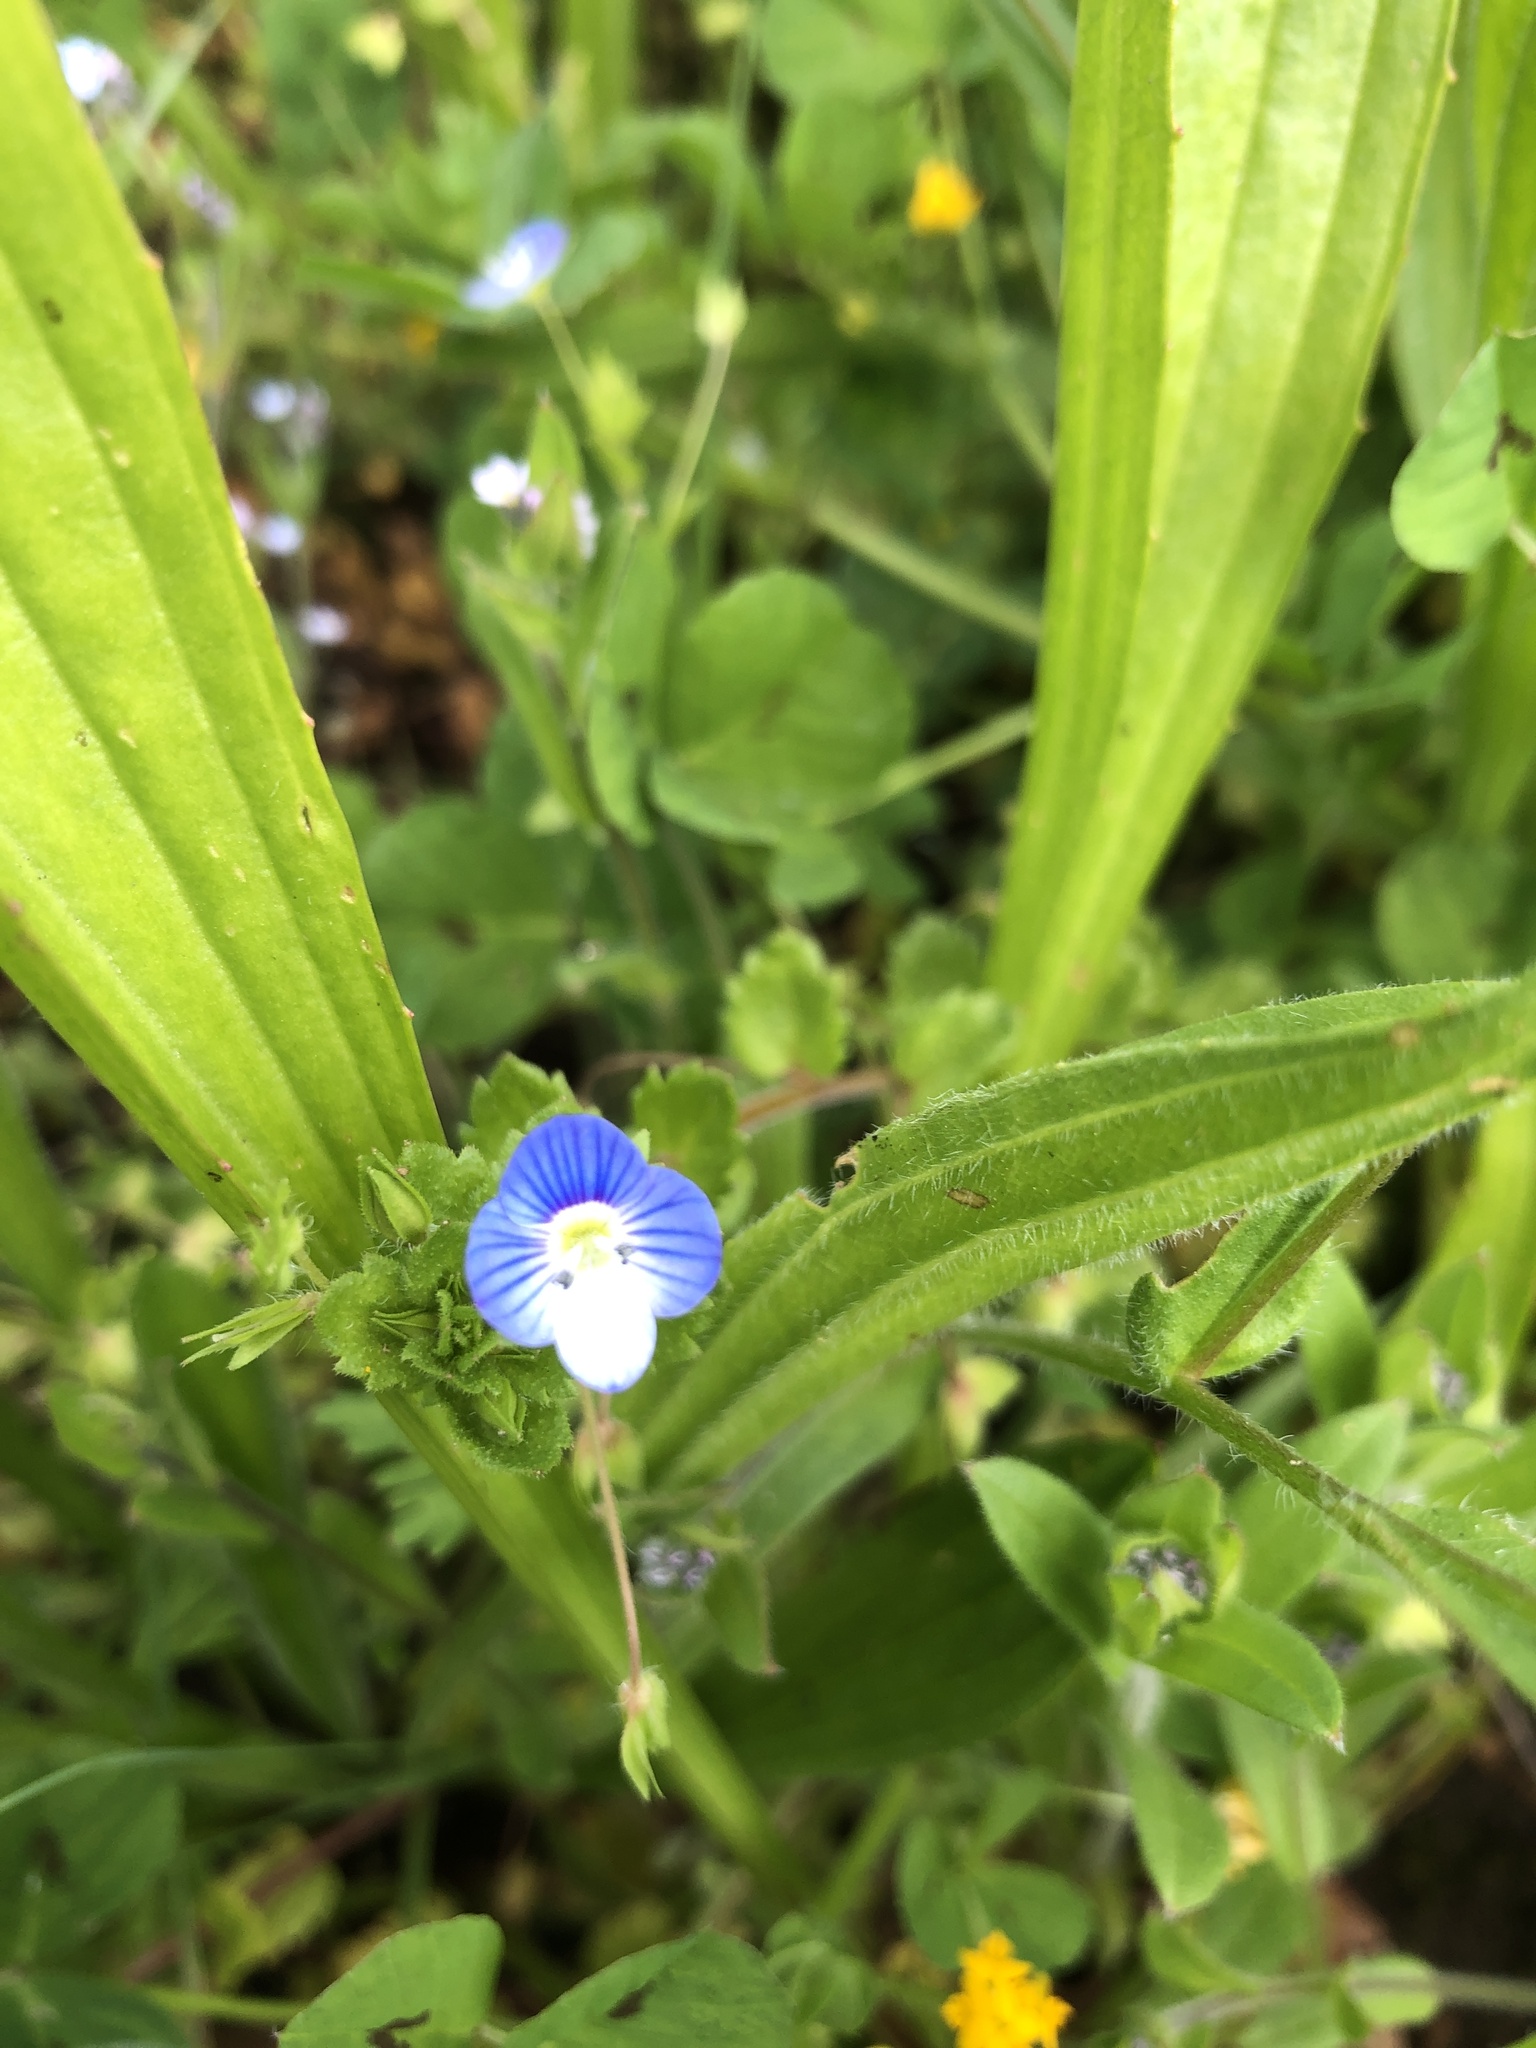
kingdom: Plantae
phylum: Tracheophyta
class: Magnoliopsida
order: Lamiales
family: Plantaginaceae
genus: Veronica
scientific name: Veronica persica
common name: Common field-speedwell
